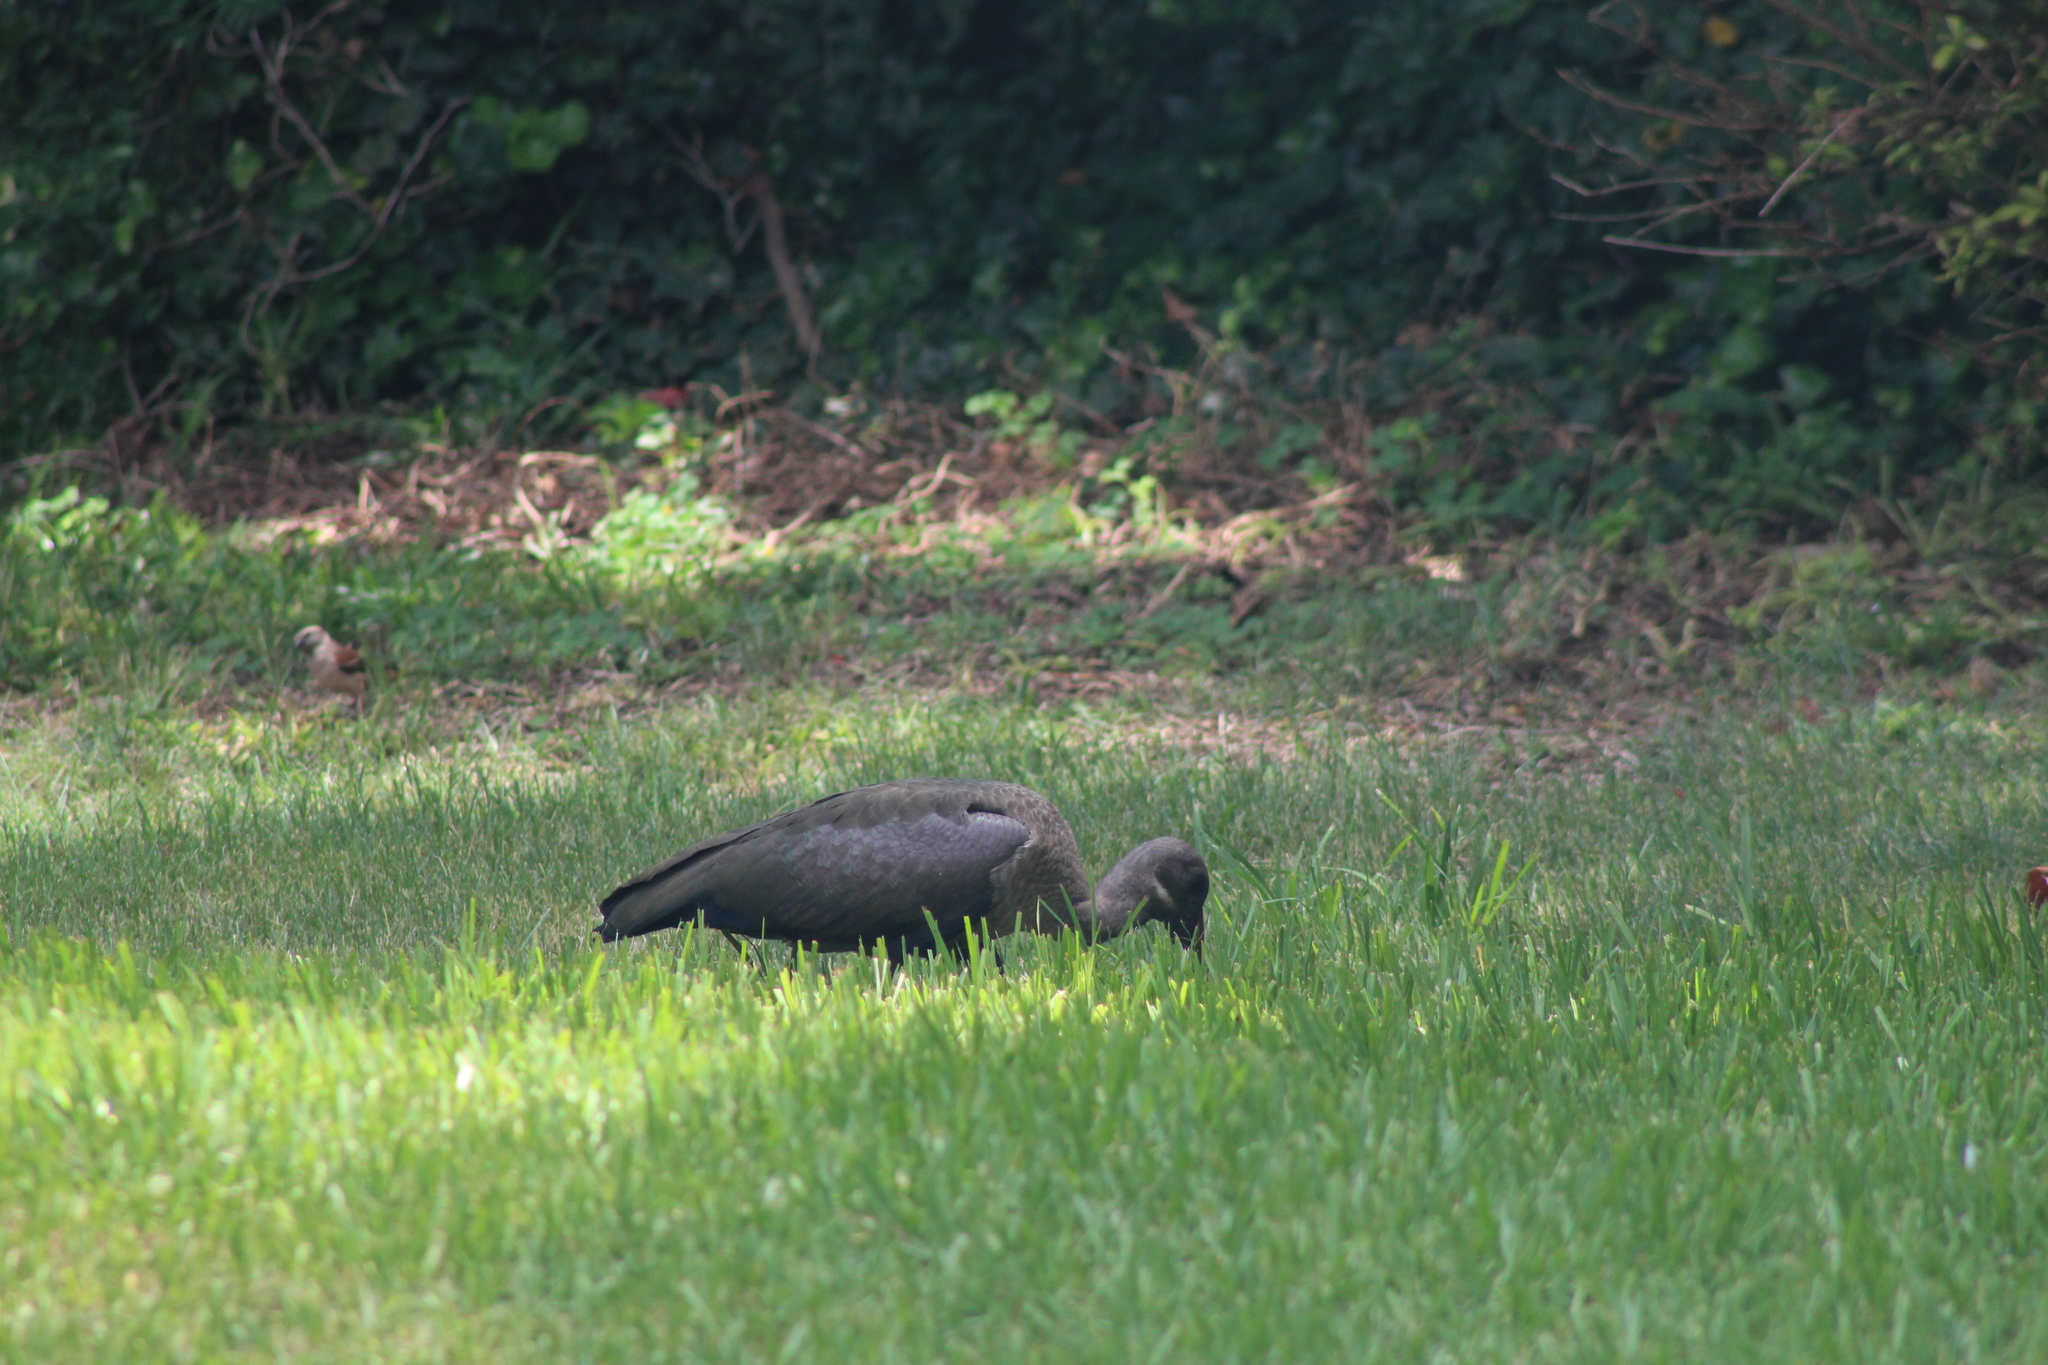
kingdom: Animalia
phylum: Chordata
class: Aves
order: Pelecaniformes
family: Threskiornithidae
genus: Bostrychia
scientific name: Bostrychia hagedash
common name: Hadada ibis
